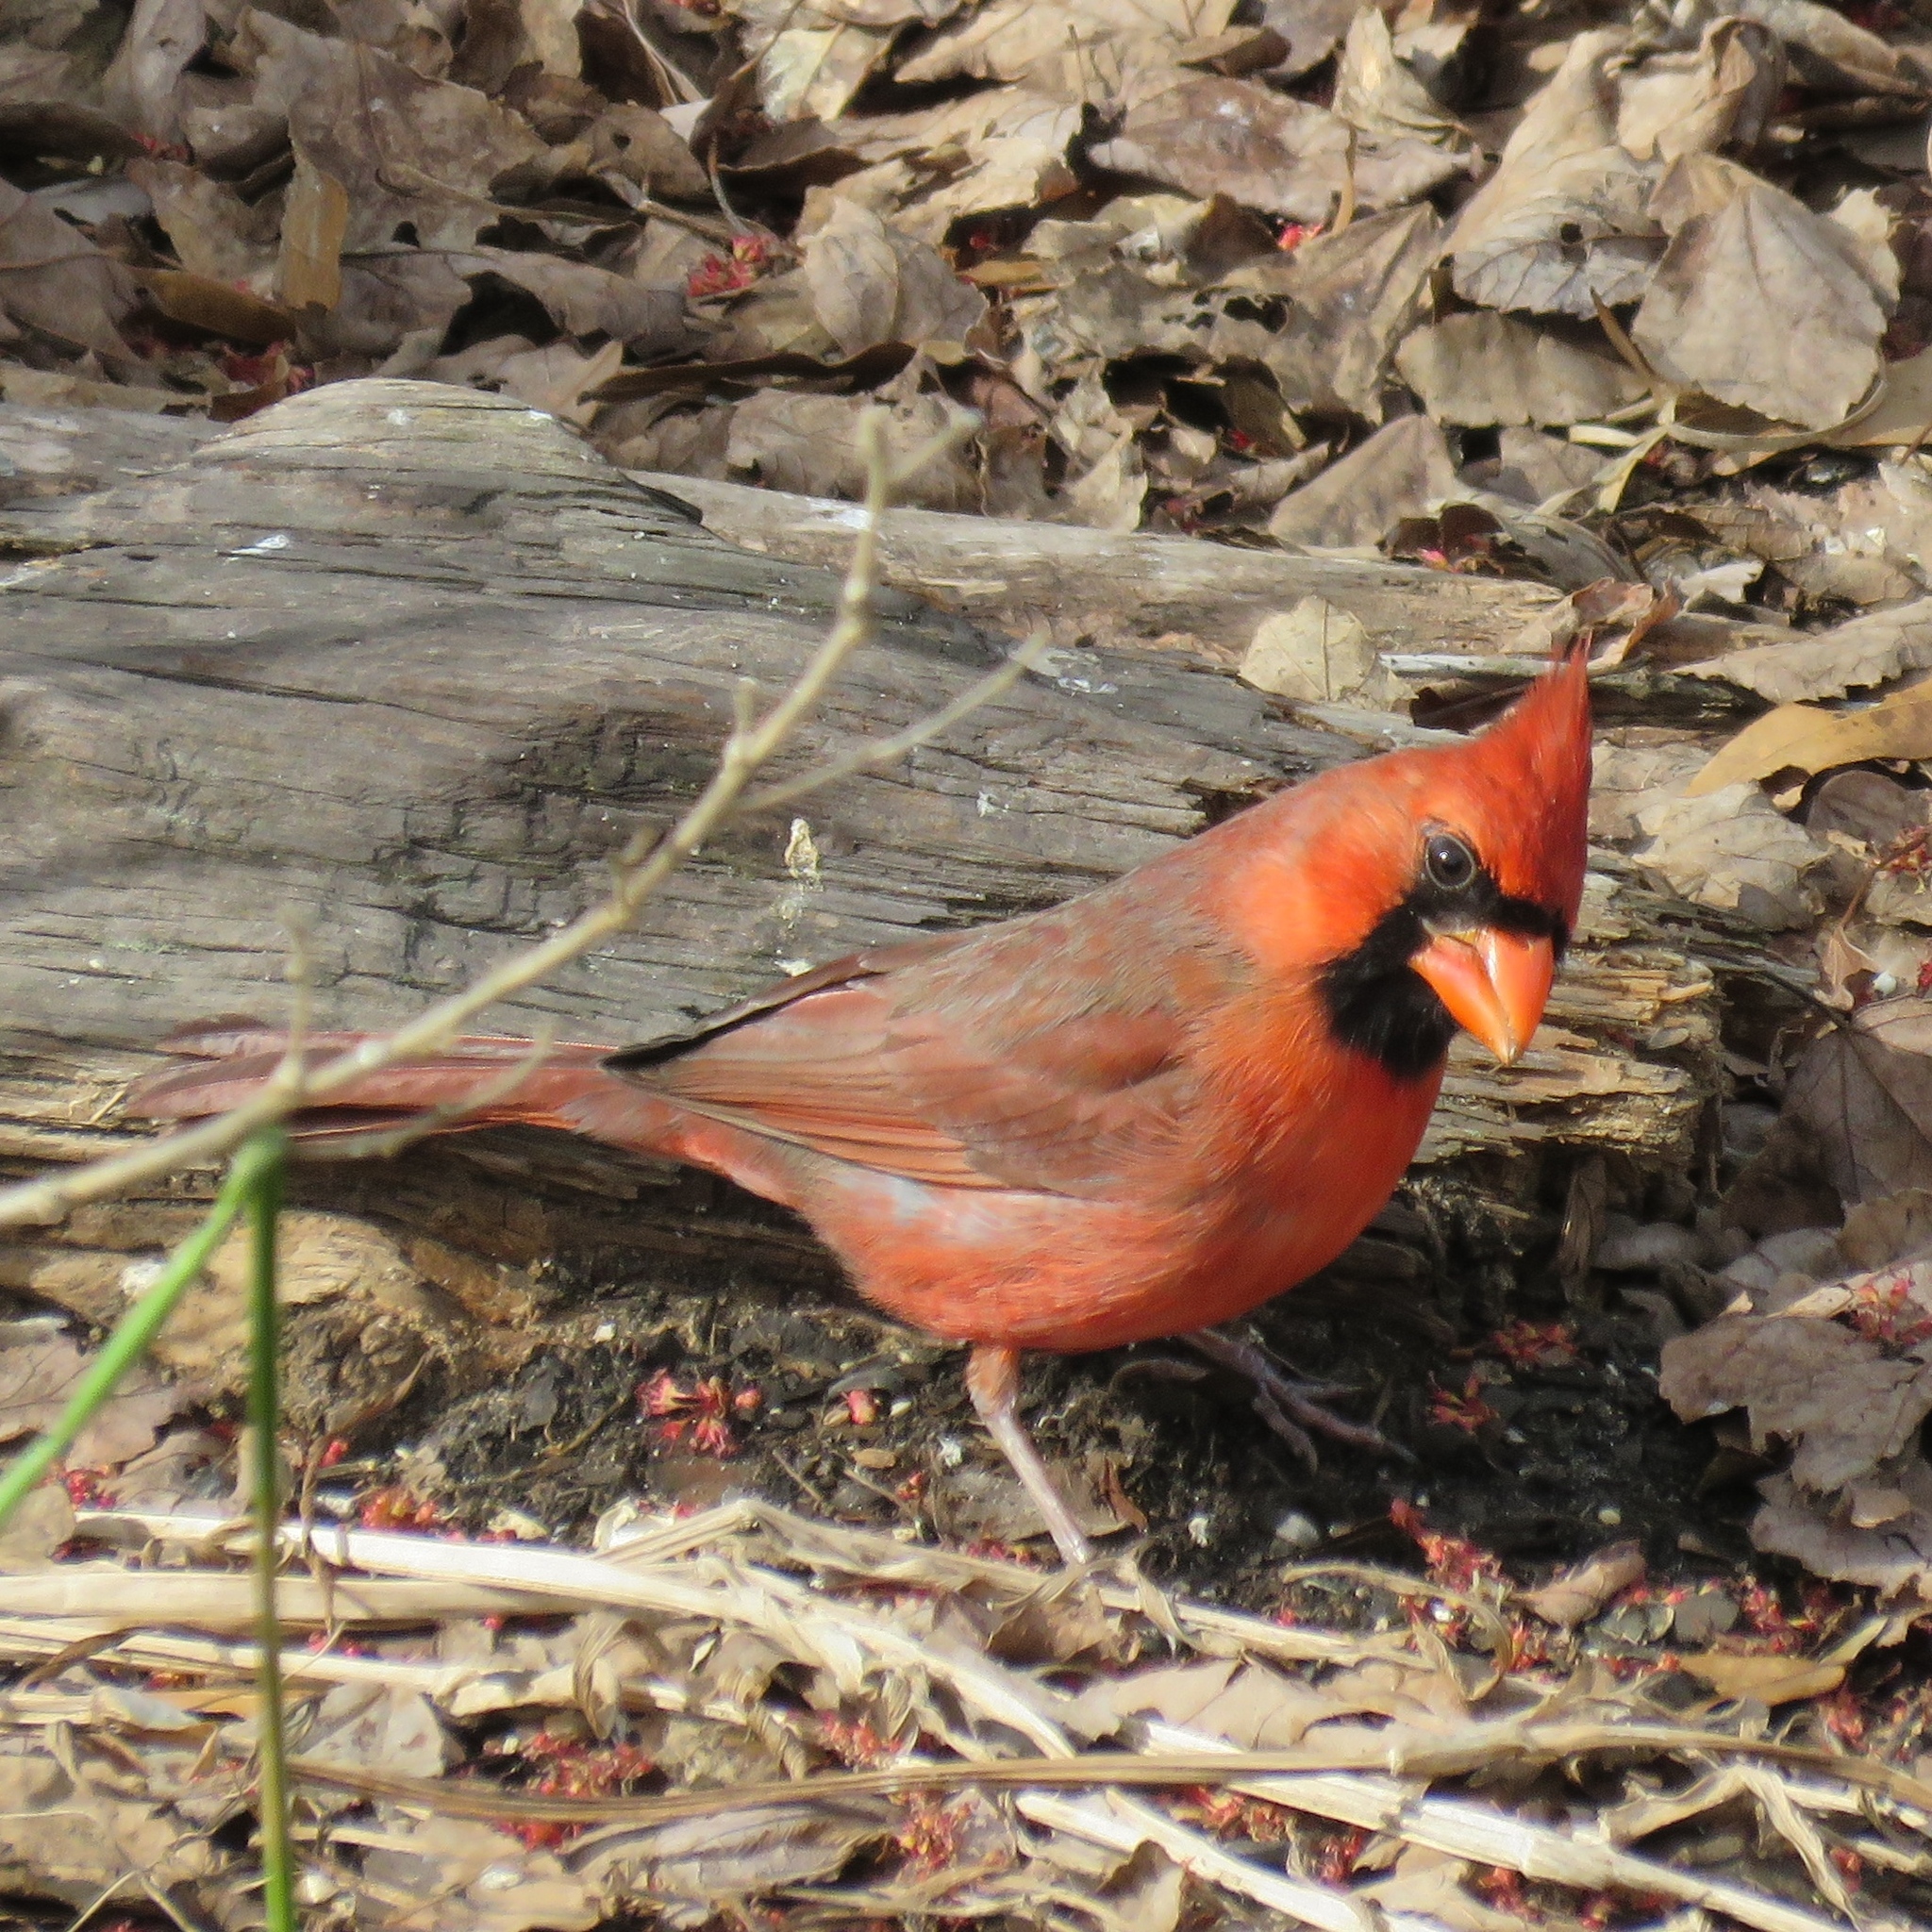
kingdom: Animalia
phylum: Chordata
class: Aves
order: Passeriformes
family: Cardinalidae
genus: Cardinalis
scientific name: Cardinalis cardinalis
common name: Northern cardinal
